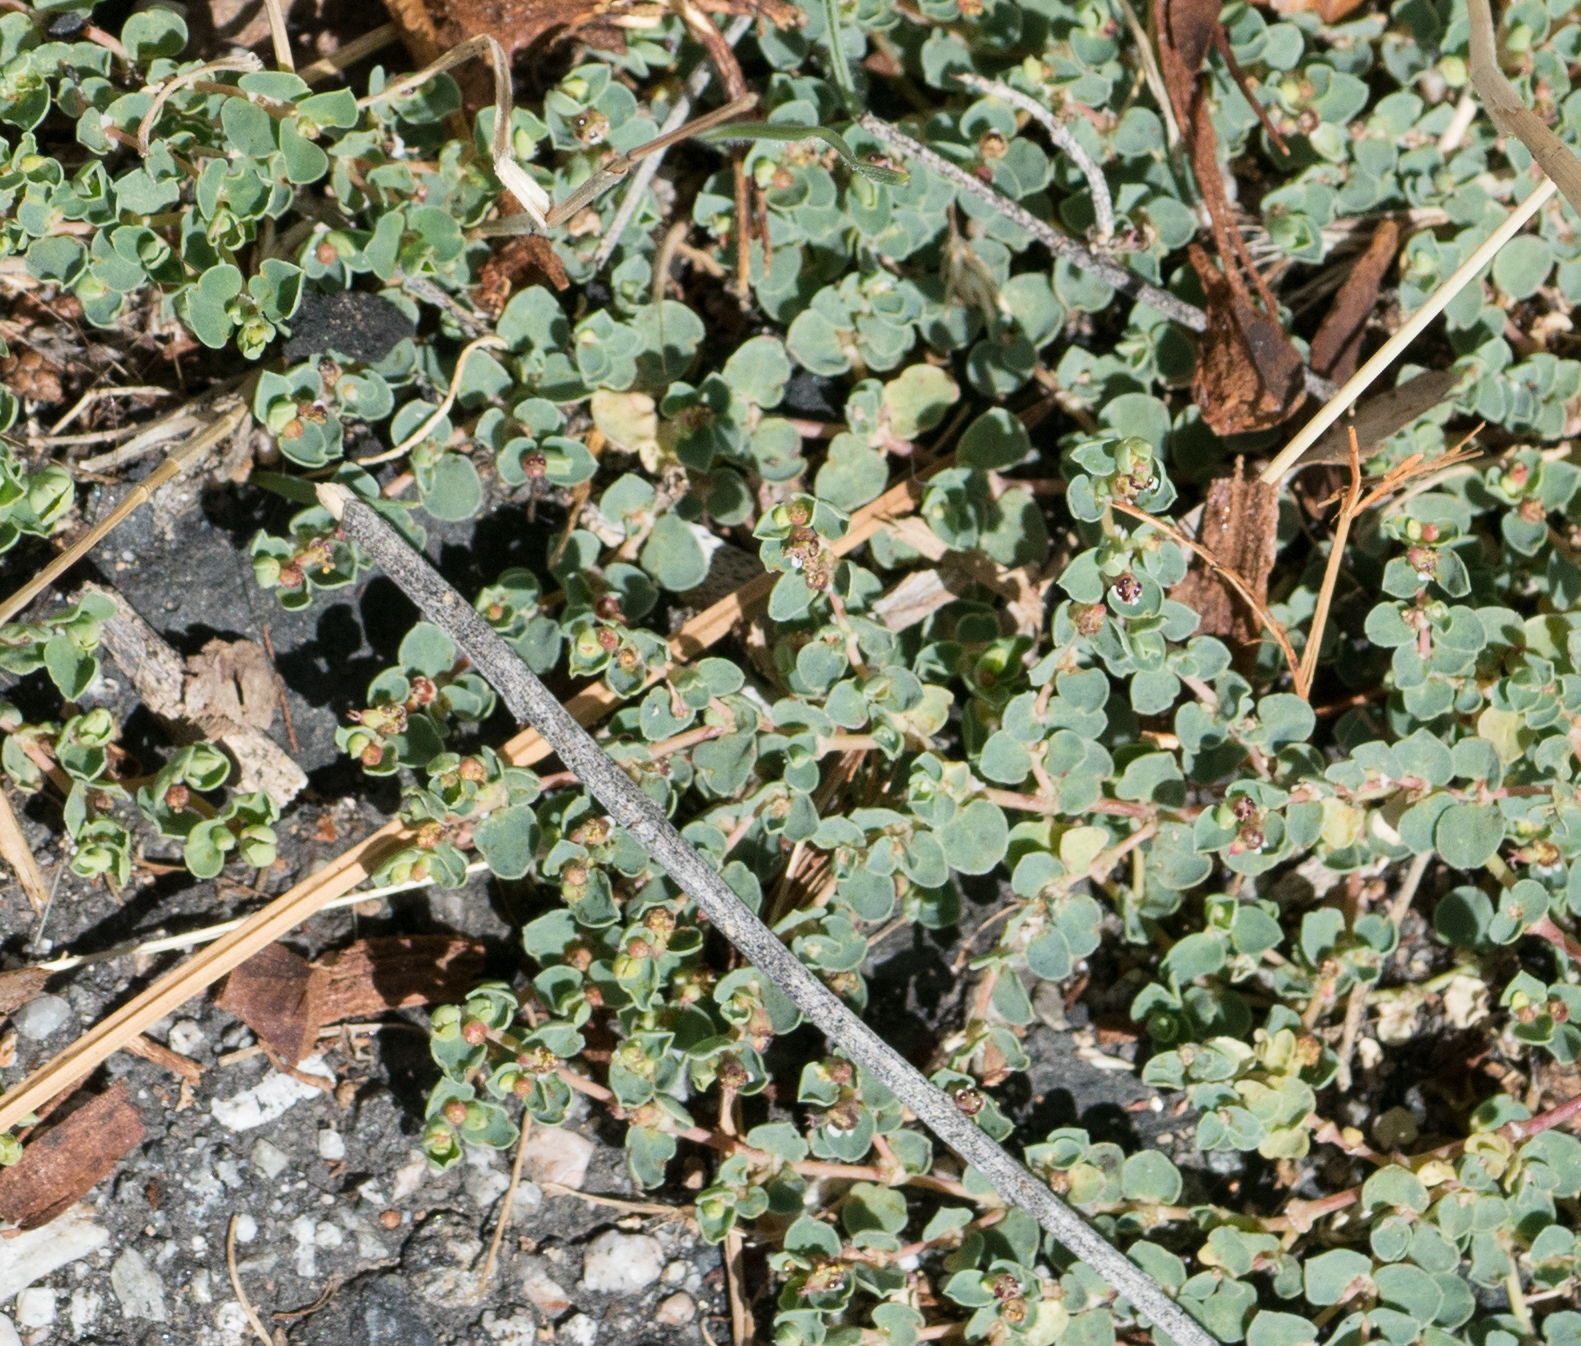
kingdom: Plantae
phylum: Tracheophyta
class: Magnoliopsida
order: Malpighiales
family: Euphorbiaceae
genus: Euphorbia
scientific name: Euphorbia albomarginata
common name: Whitemargin sandmat
